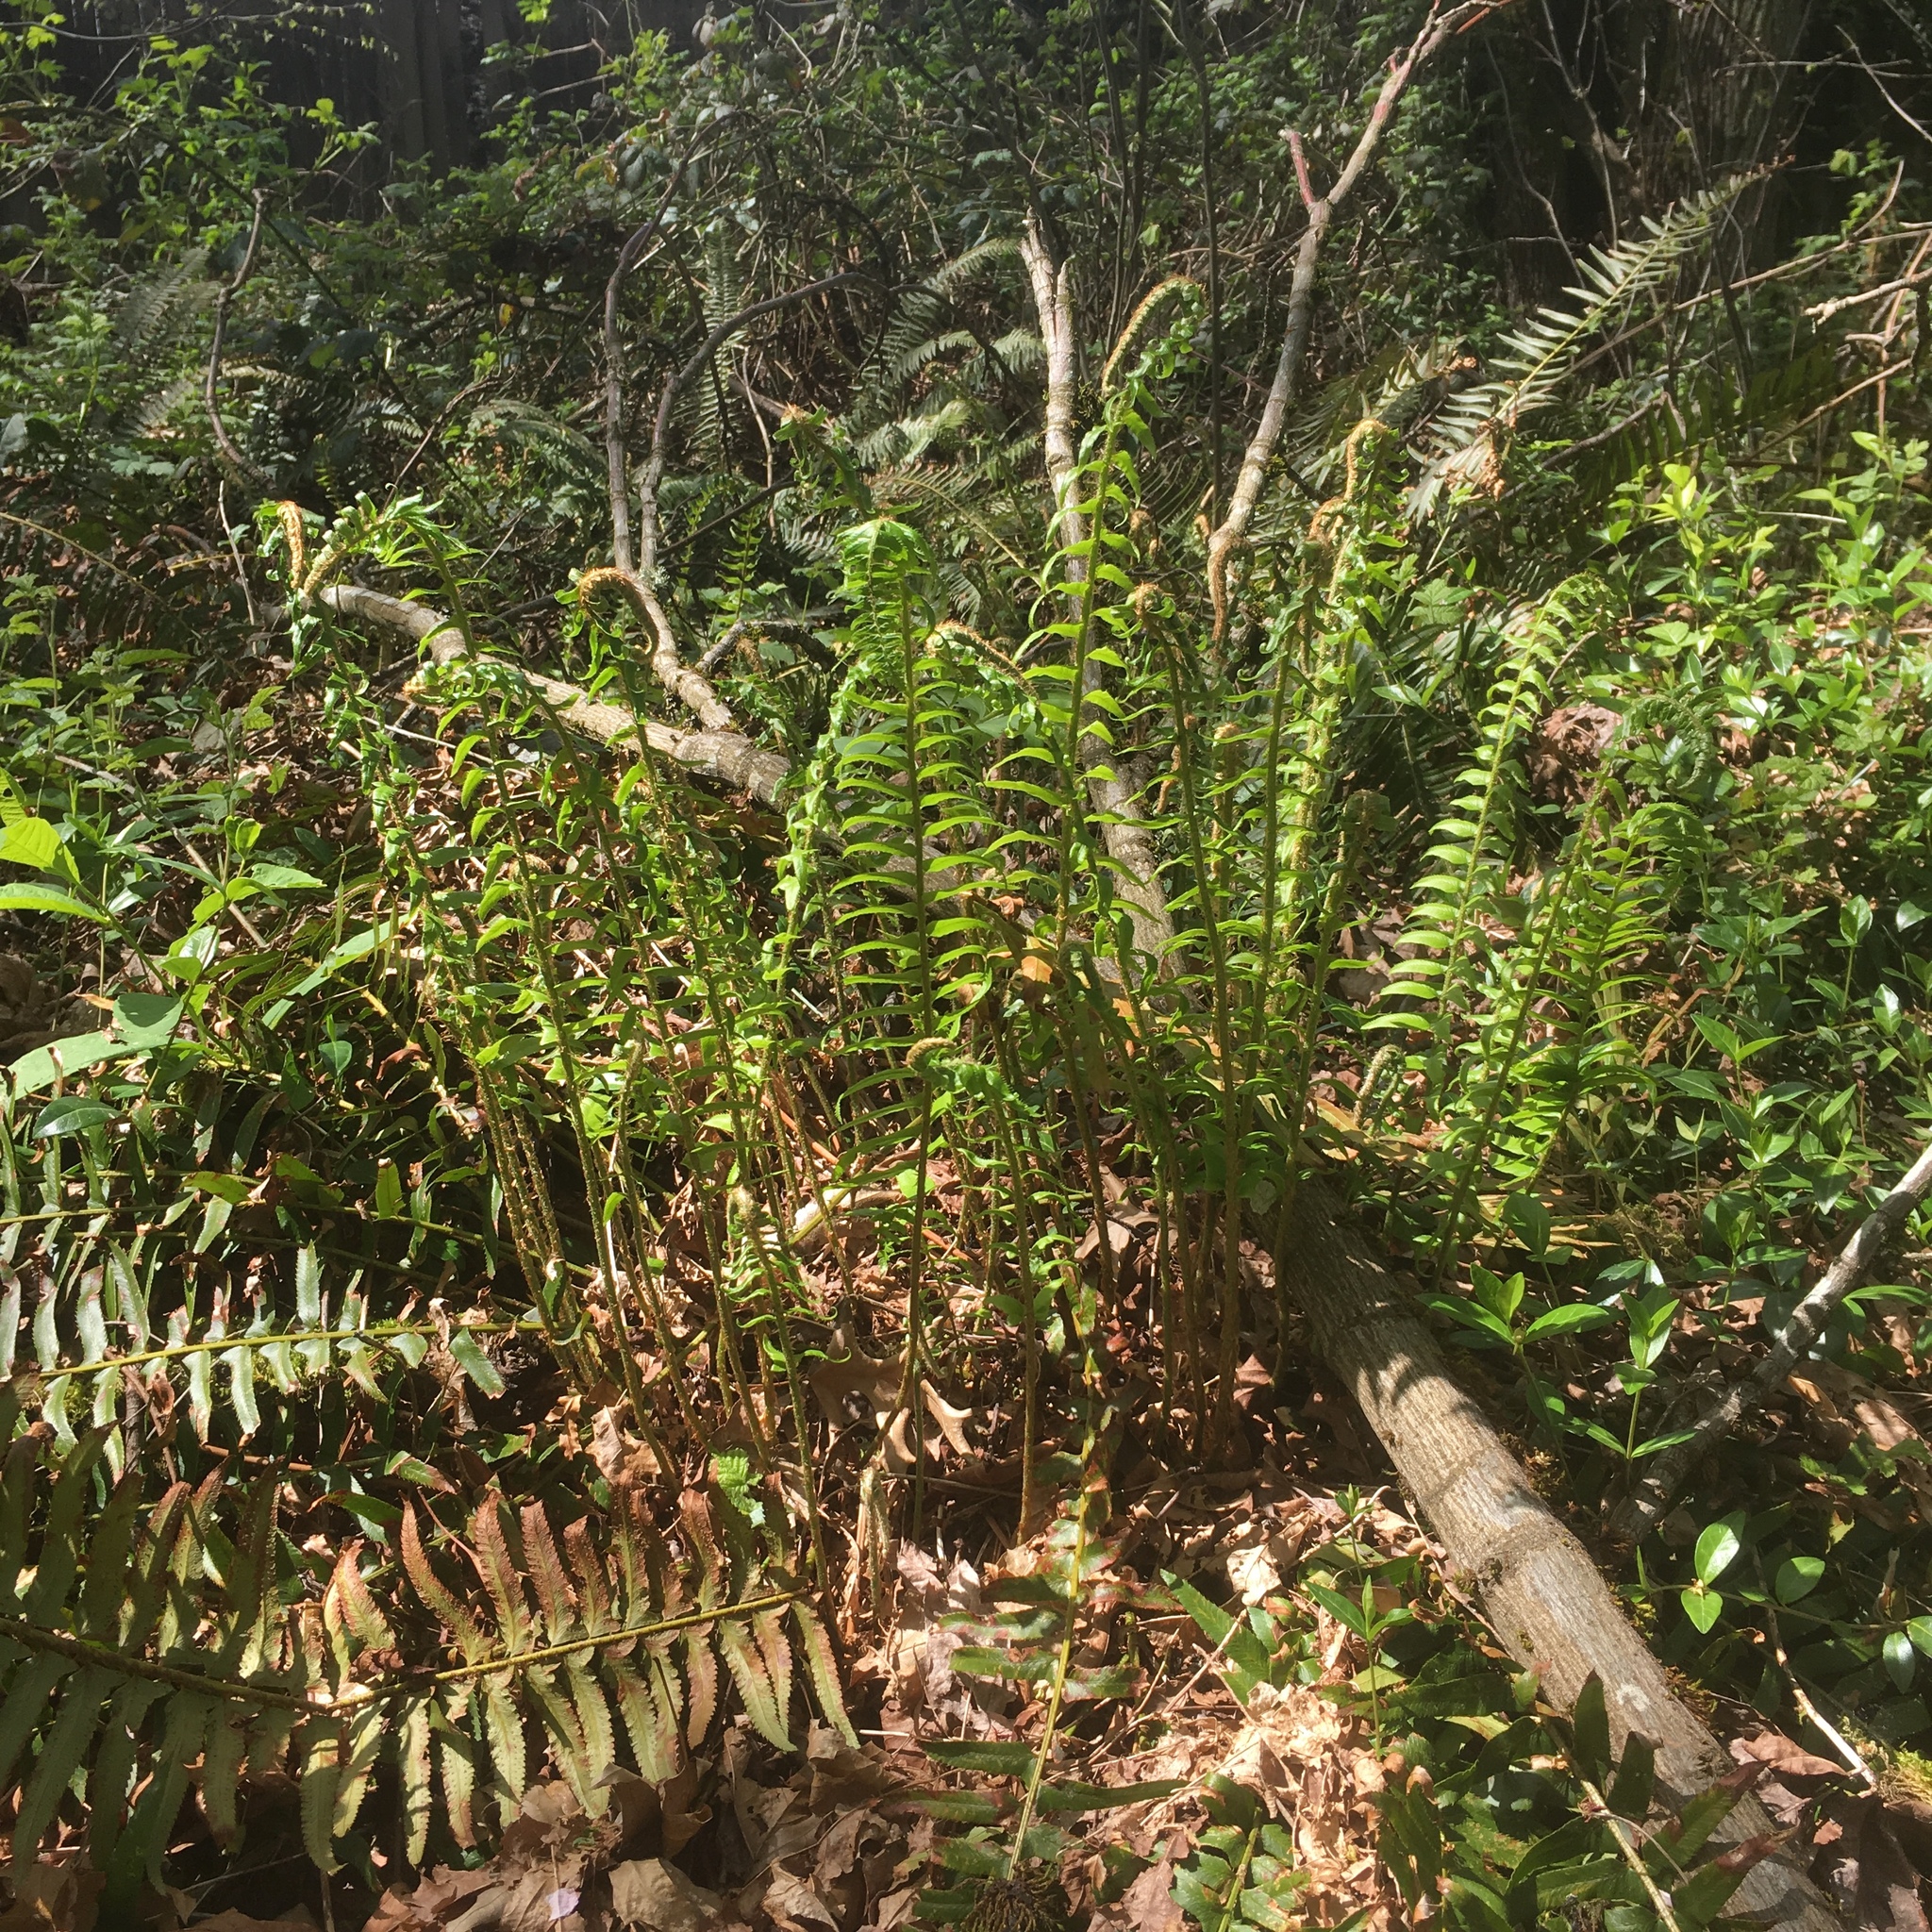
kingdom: Plantae
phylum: Tracheophyta
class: Polypodiopsida
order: Polypodiales
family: Dryopteridaceae
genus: Polystichum
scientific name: Polystichum munitum
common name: Western sword-fern
